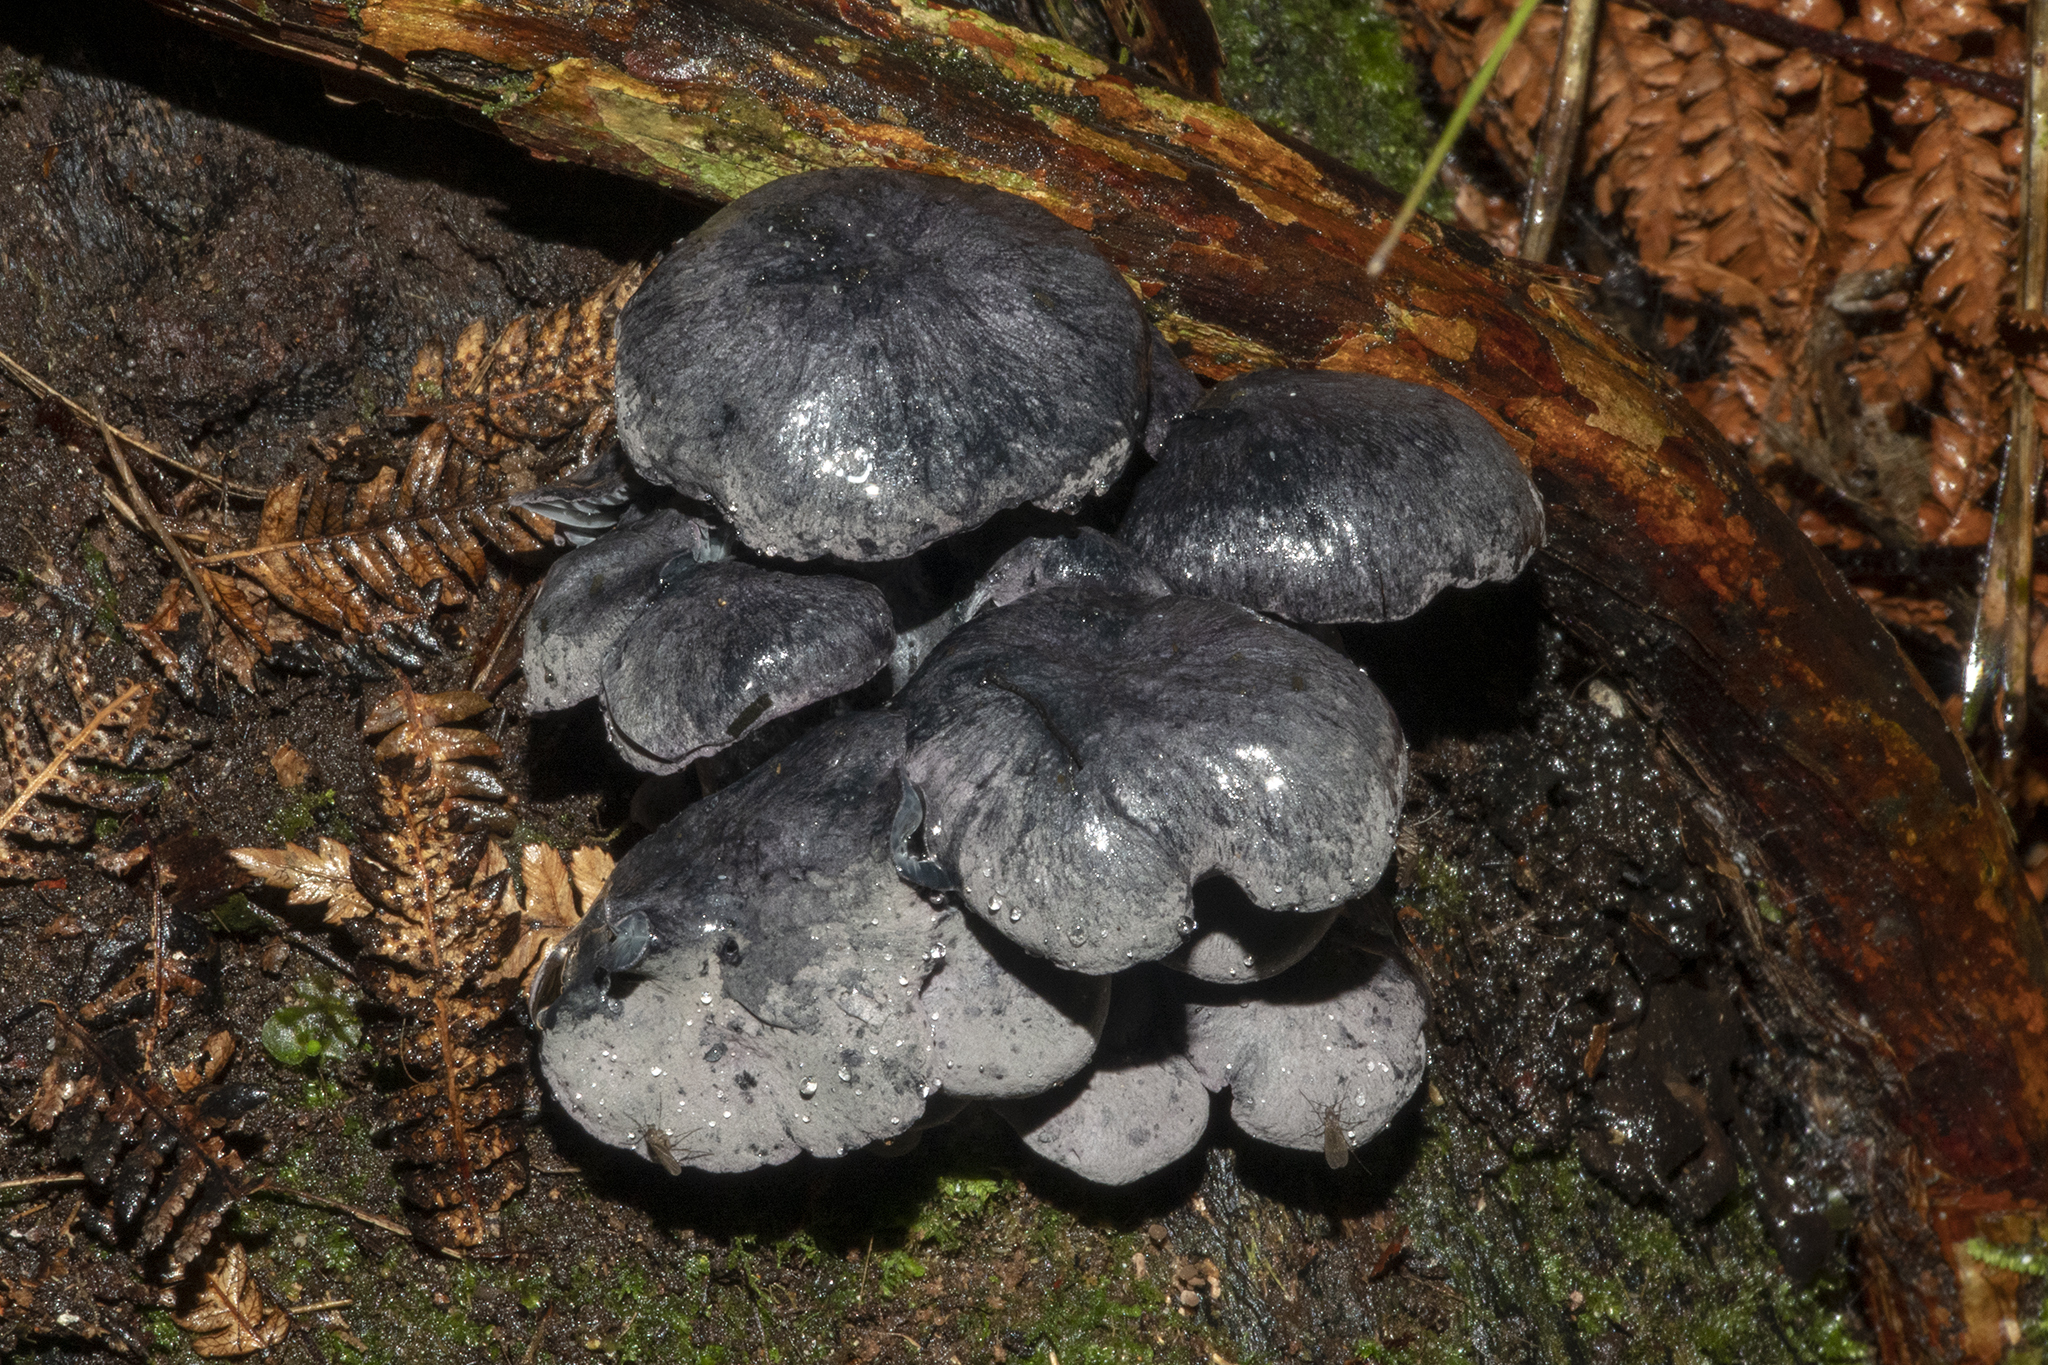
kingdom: Fungi
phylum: Basidiomycota
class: Agaricomycetes
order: Agaricales
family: Marasmiaceae
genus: Gerronema
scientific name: Gerronema waikanaense
